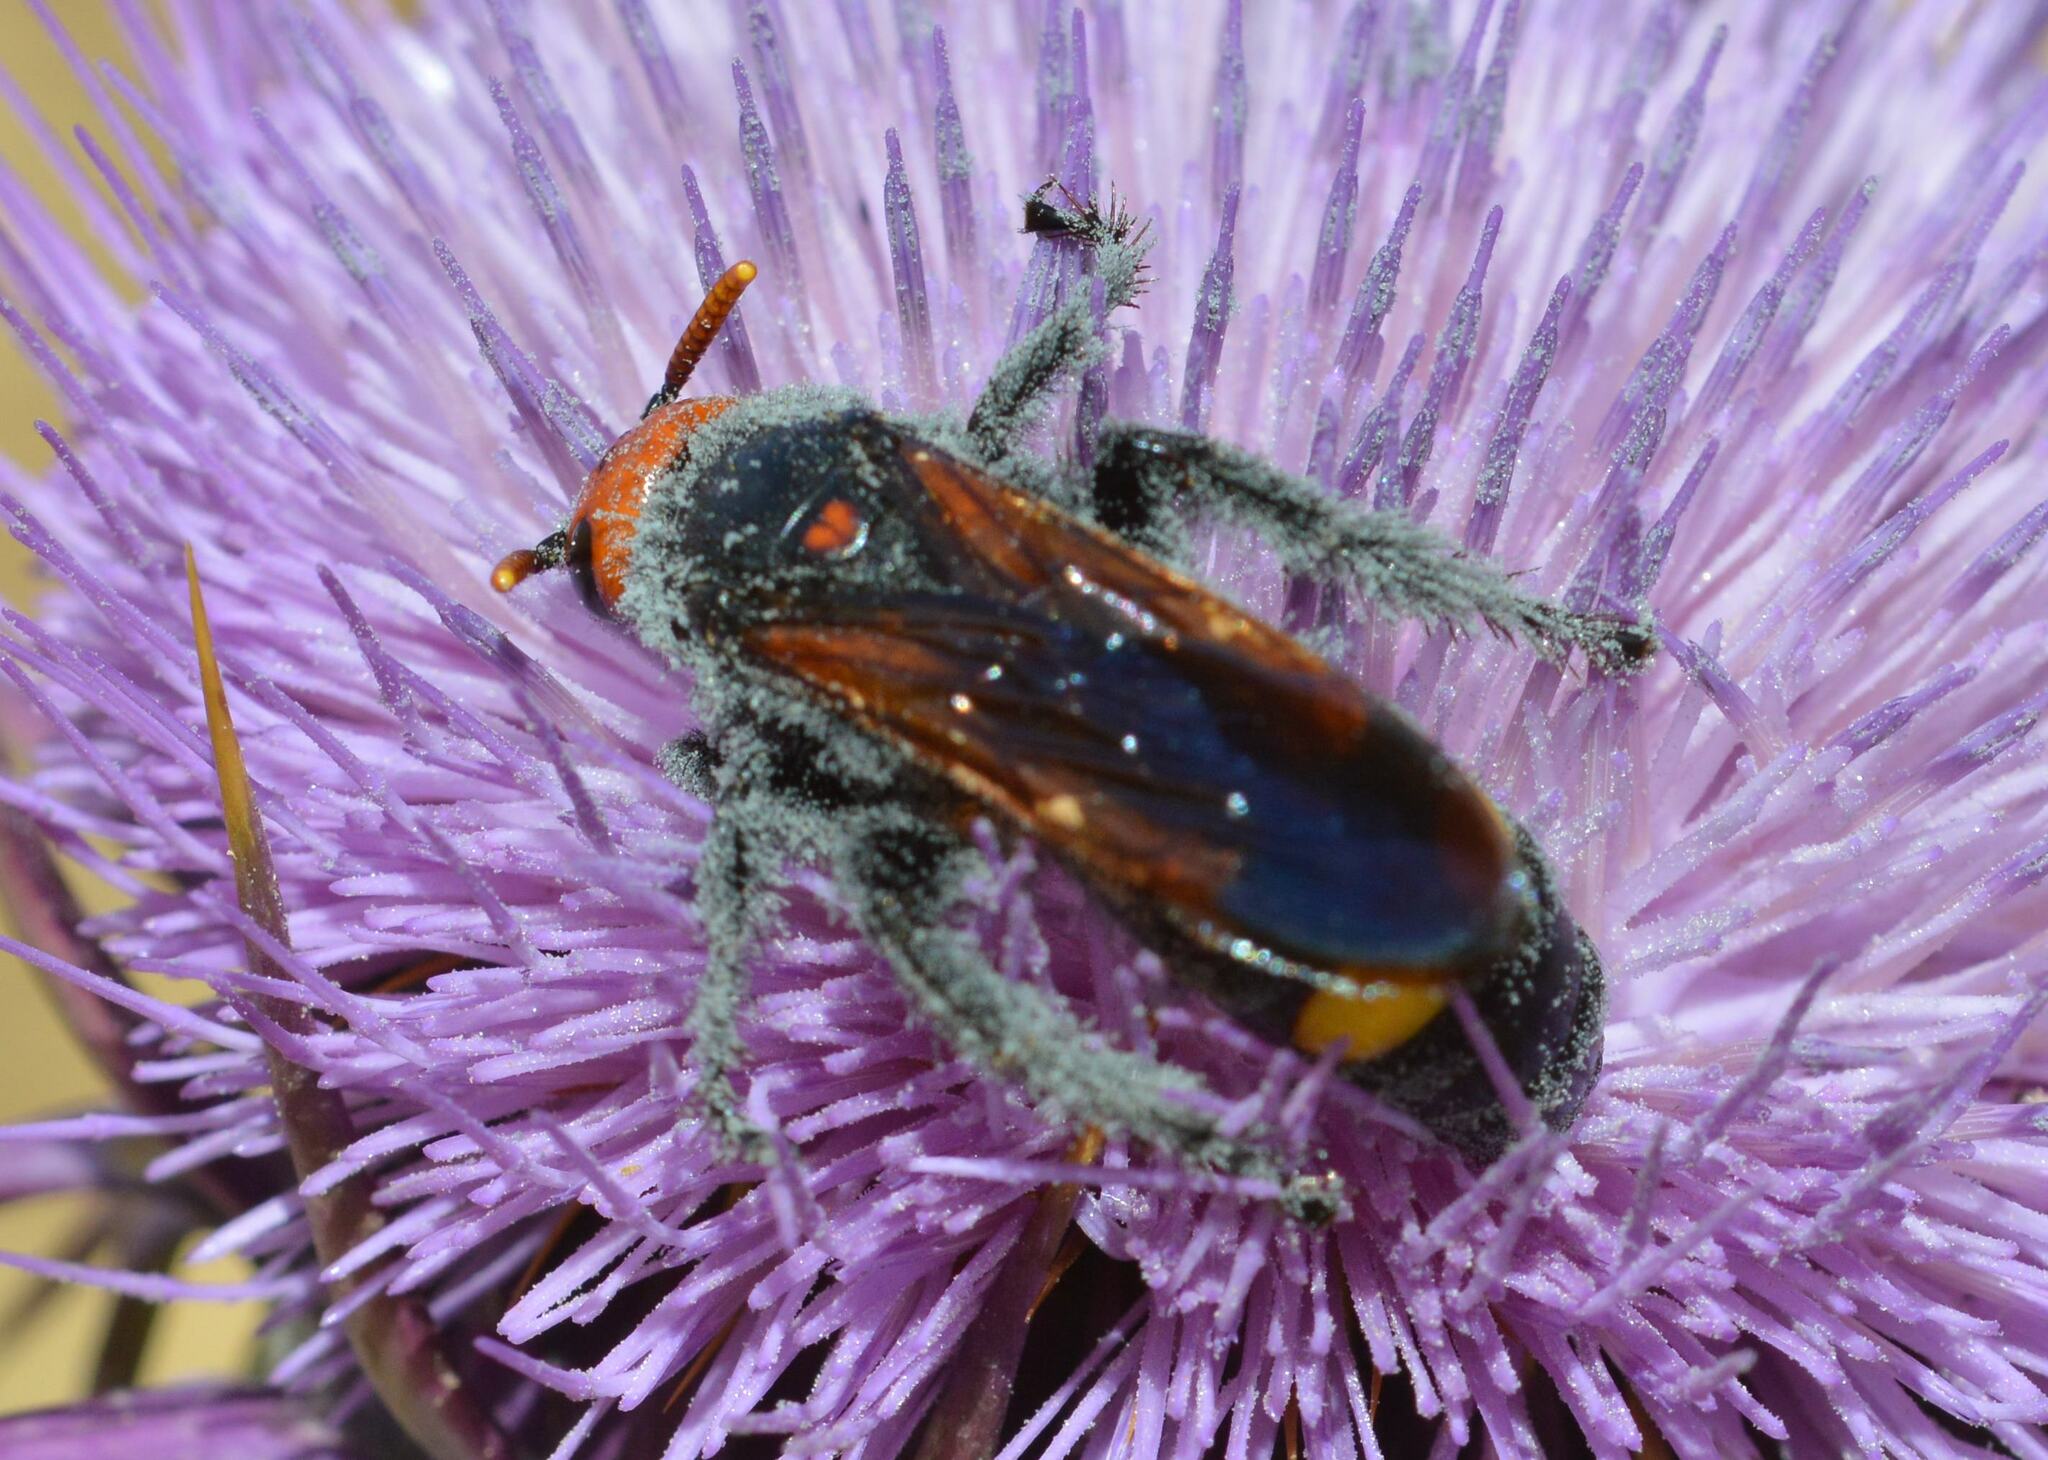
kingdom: Animalia
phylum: Arthropoda
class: Insecta
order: Hymenoptera
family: Scoliidae
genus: Megascolia
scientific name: Megascolia bidens
